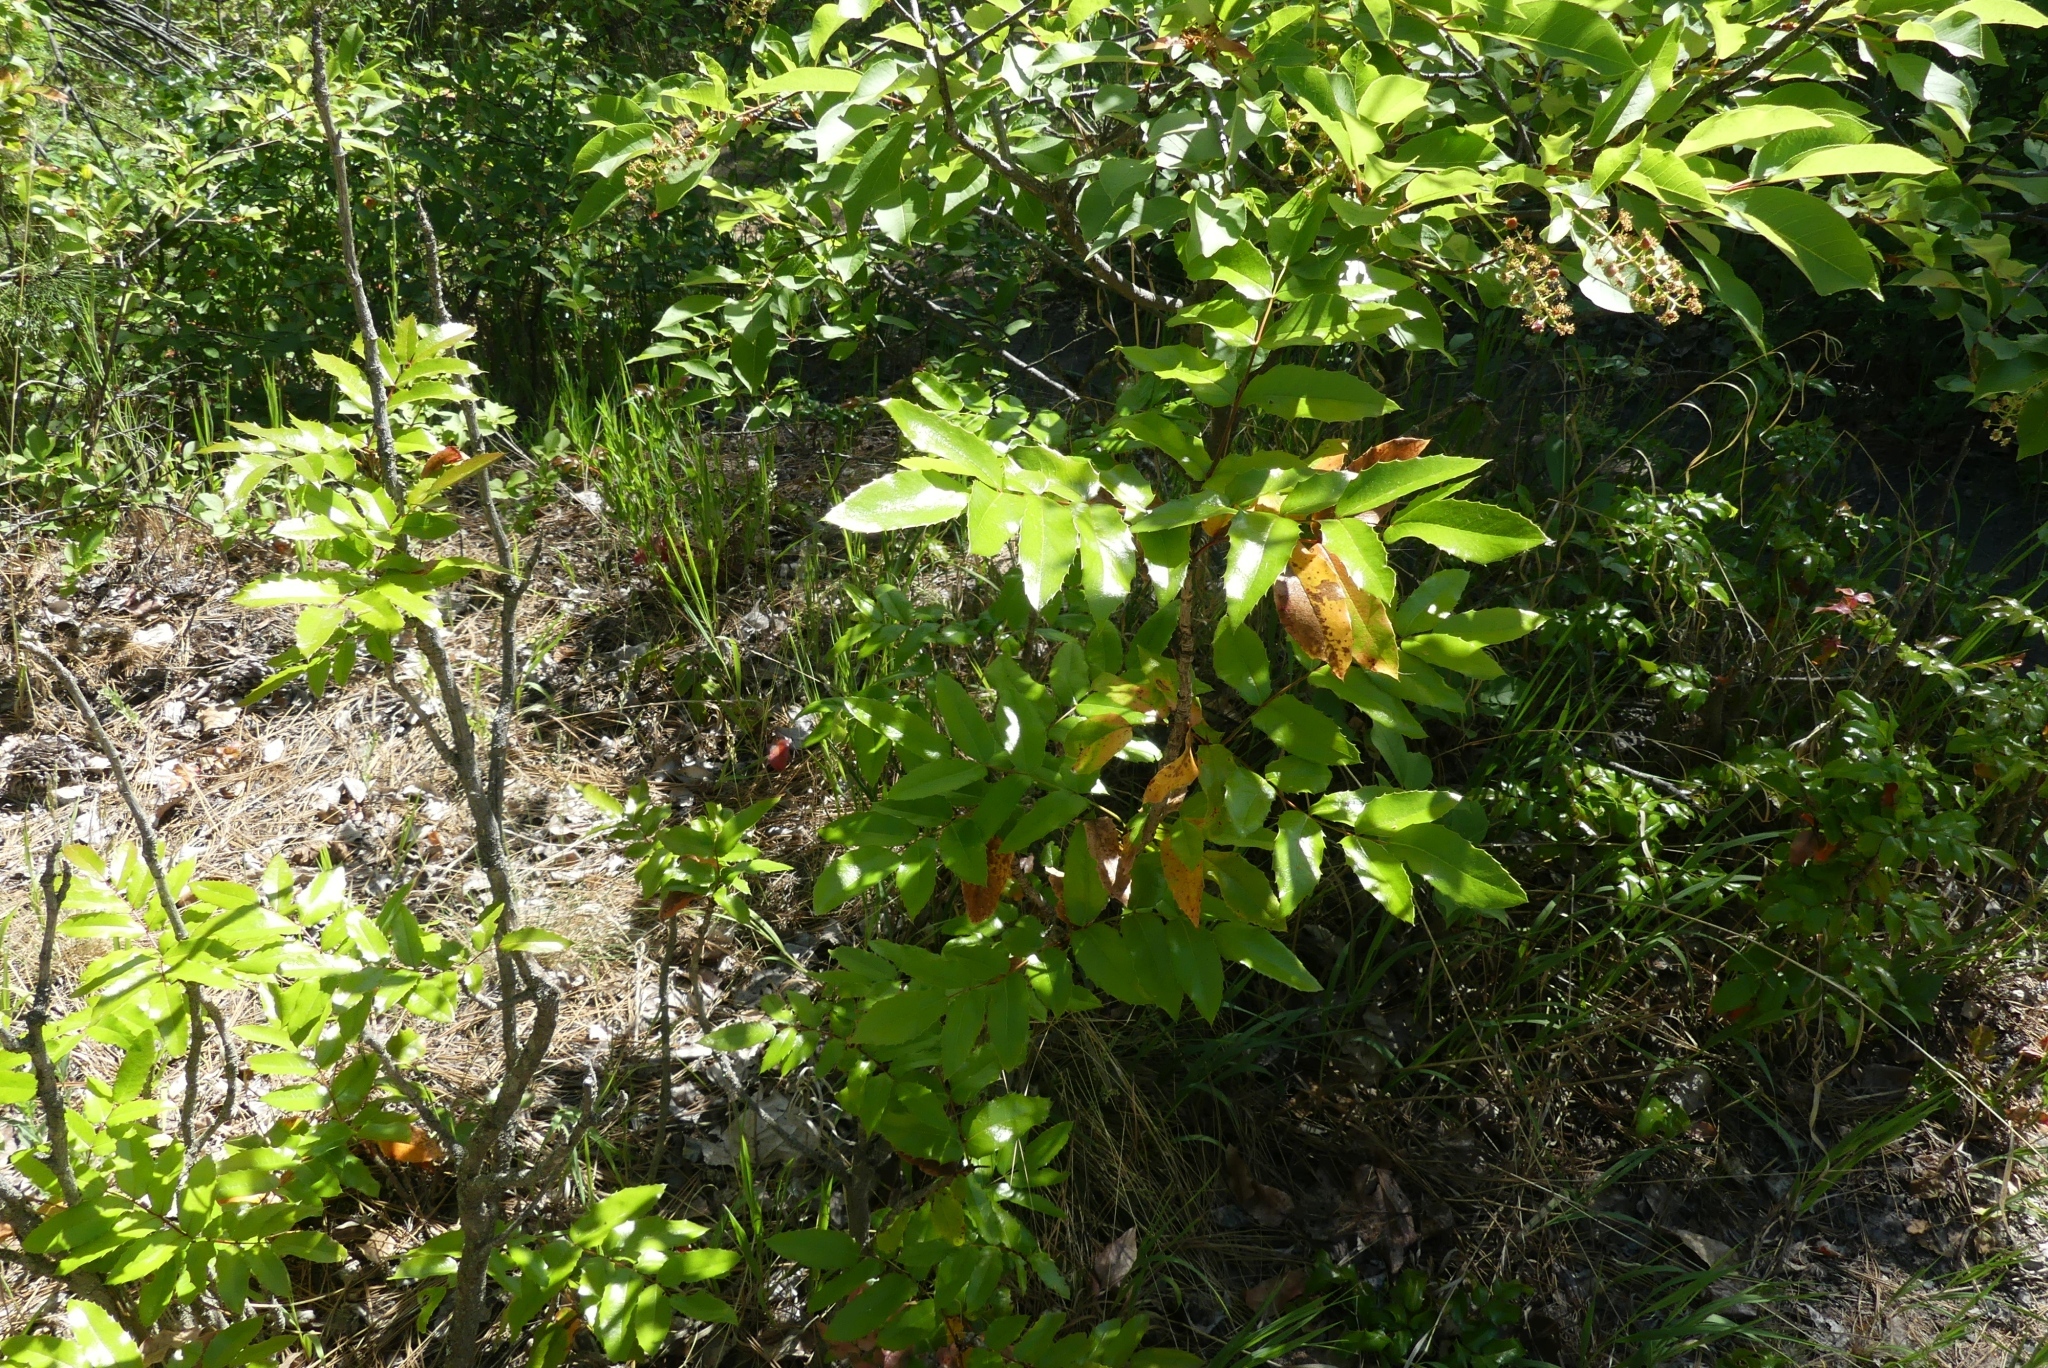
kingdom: Plantae
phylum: Tracheophyta
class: Magnoliopsida
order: Ranunculales
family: Berberidaceae
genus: Mahonia
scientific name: Mahonia aquifolium
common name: Oregon-grape
